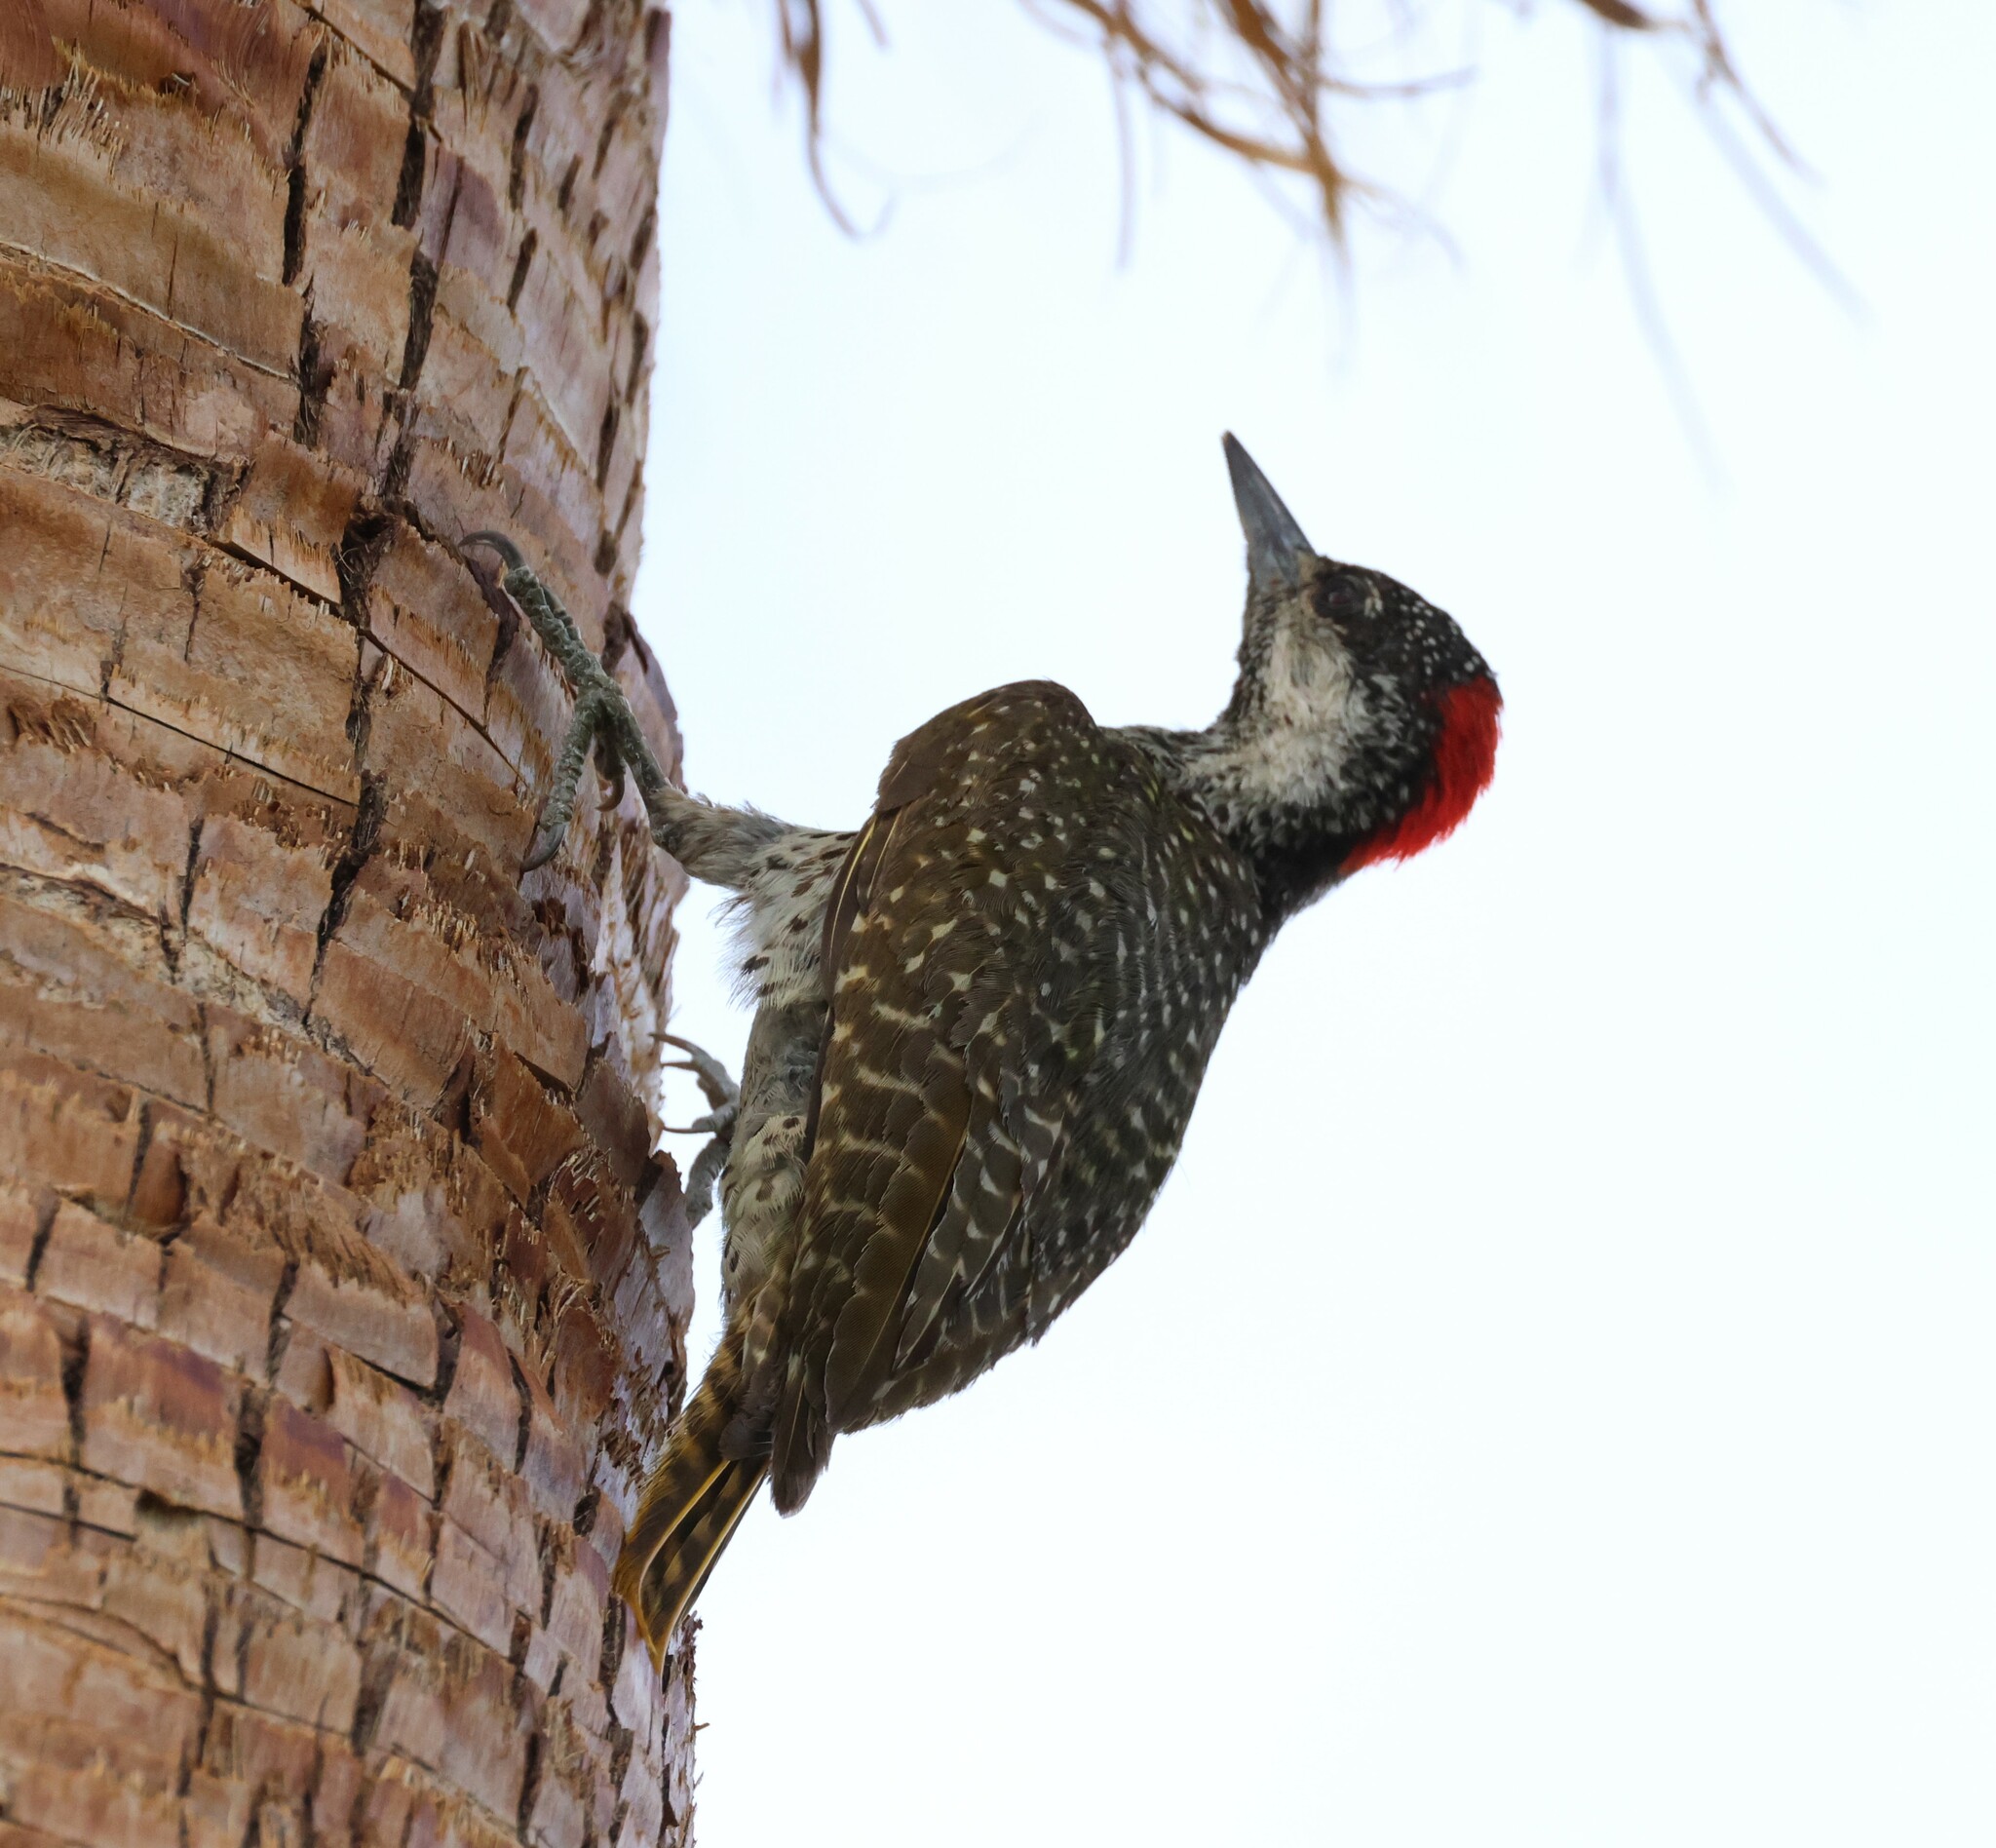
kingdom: Animalia
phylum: Chordata
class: Aves
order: Piciformes
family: Picidae
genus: Campethera
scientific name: Campethera abingoni
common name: Golden-tailed woodpecker
